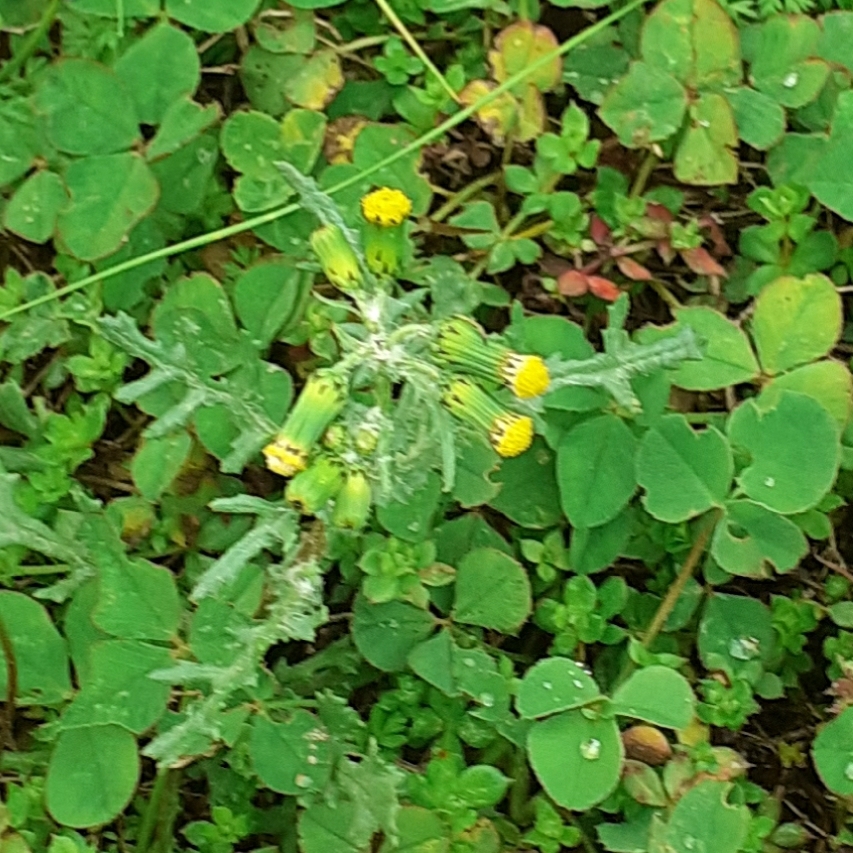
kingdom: Plantae
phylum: Tracheophyta
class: Magnoliopsida
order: Asterales
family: Asteraceae
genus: Senecio
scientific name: Senecio vulgaris
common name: Old-man-in-the-spring
